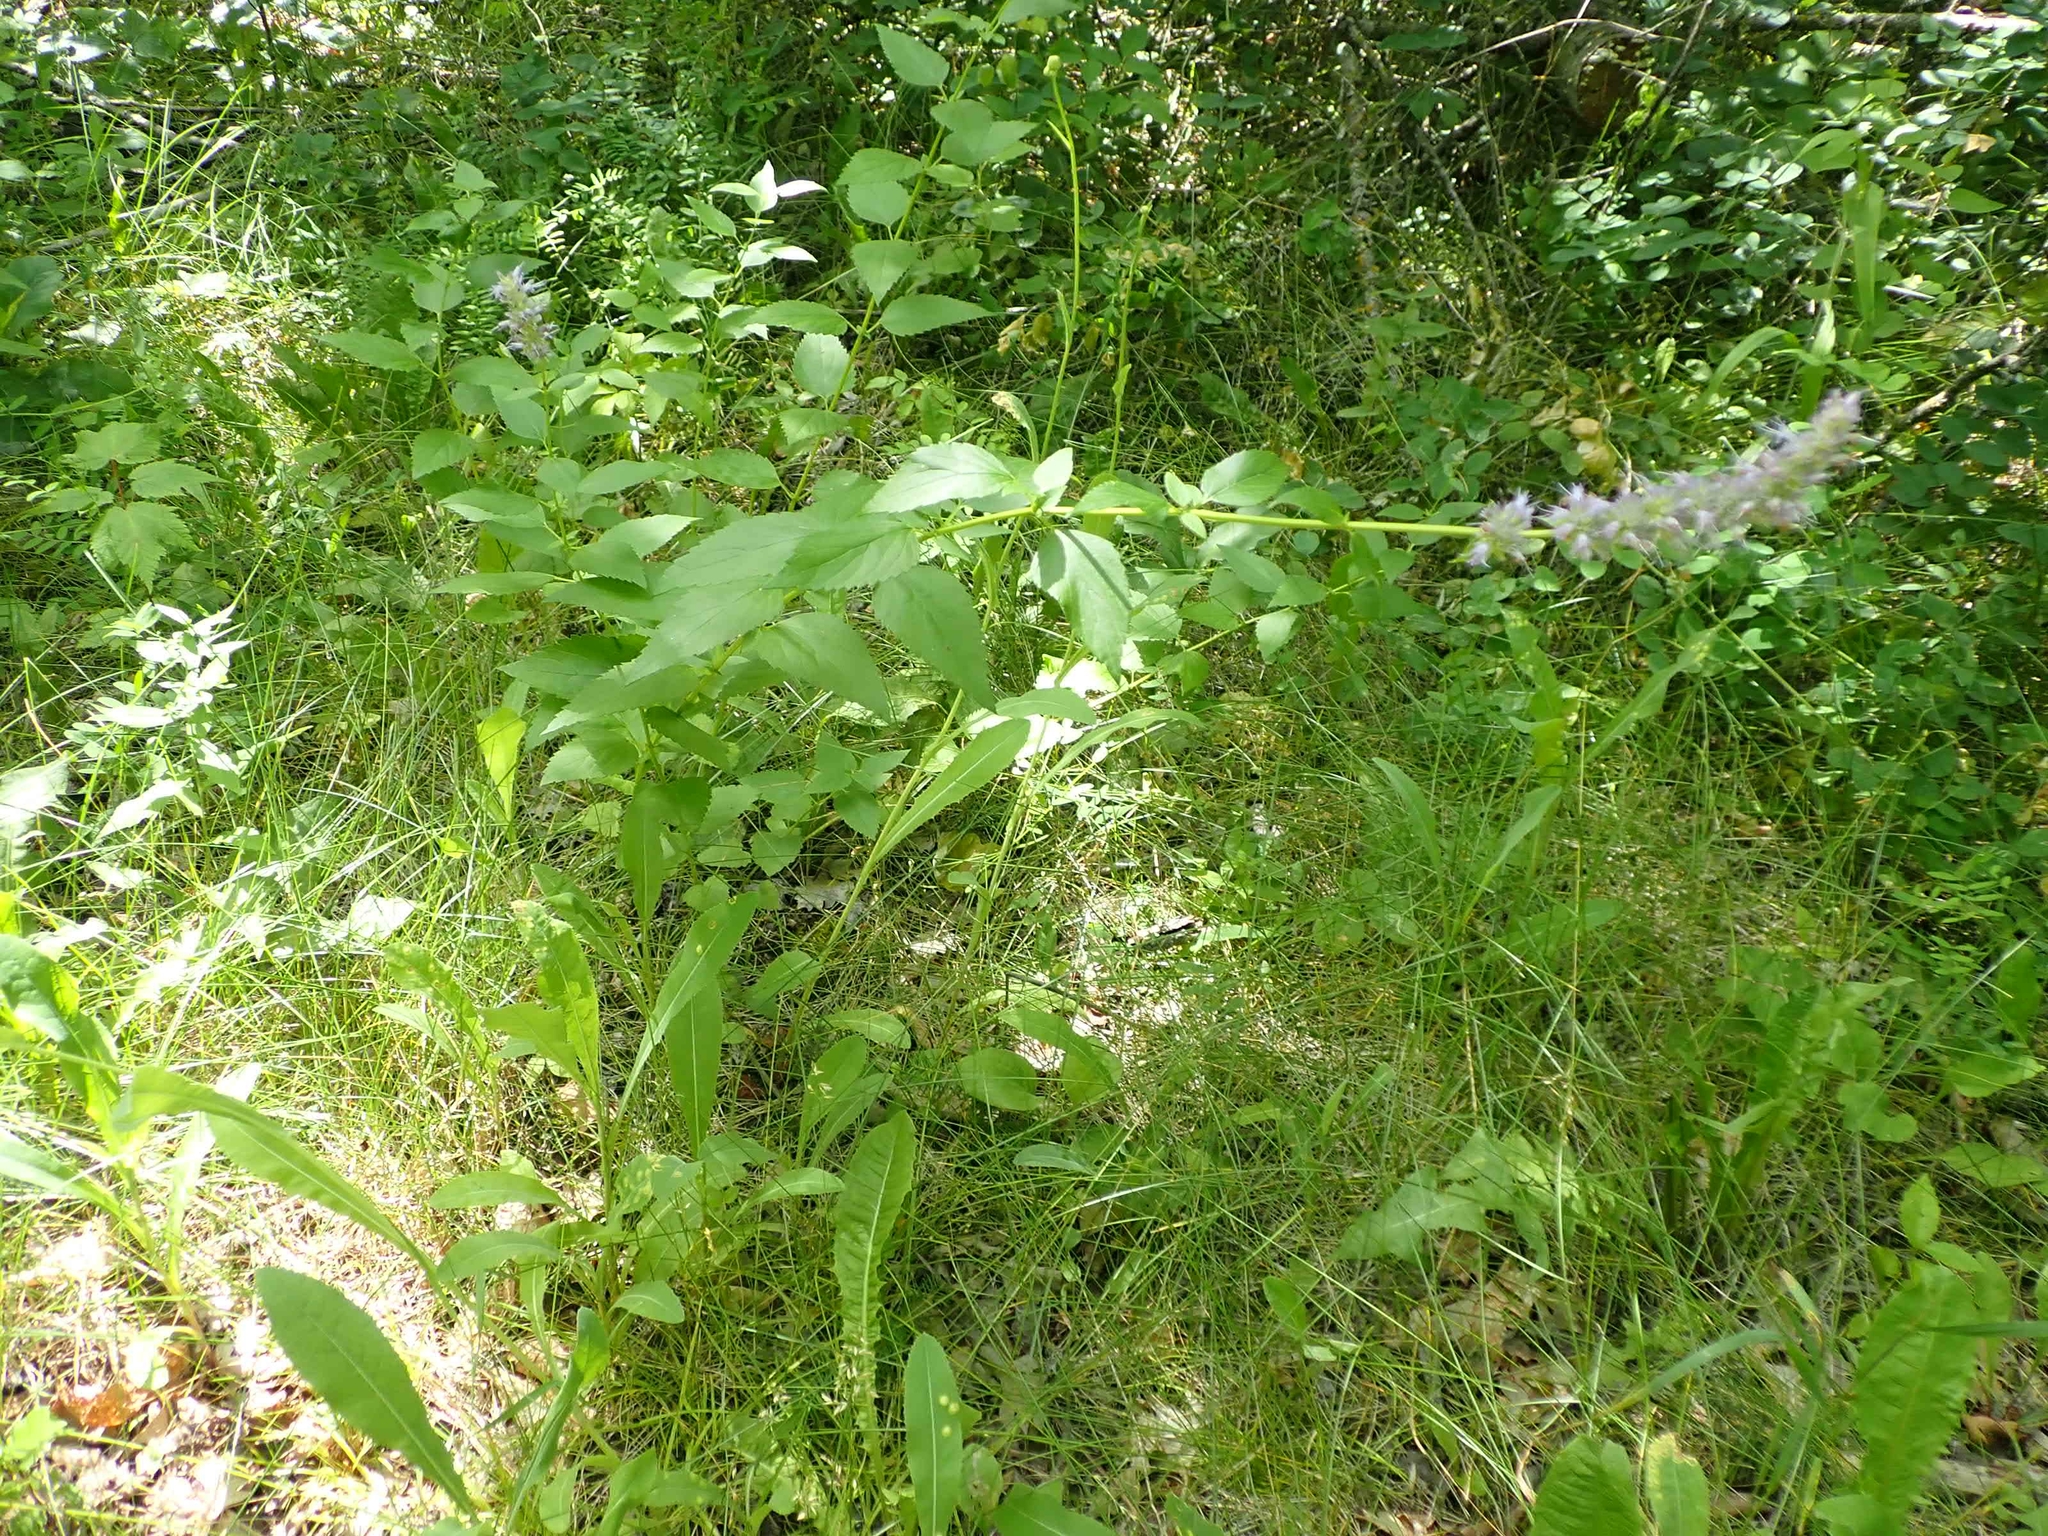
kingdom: Plantae
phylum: Tracheophyta
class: Magnoliopsida
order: Lamiales
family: Lamiaceae
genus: Agastache
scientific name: Agastache foeniculum
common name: Anise hyssop
